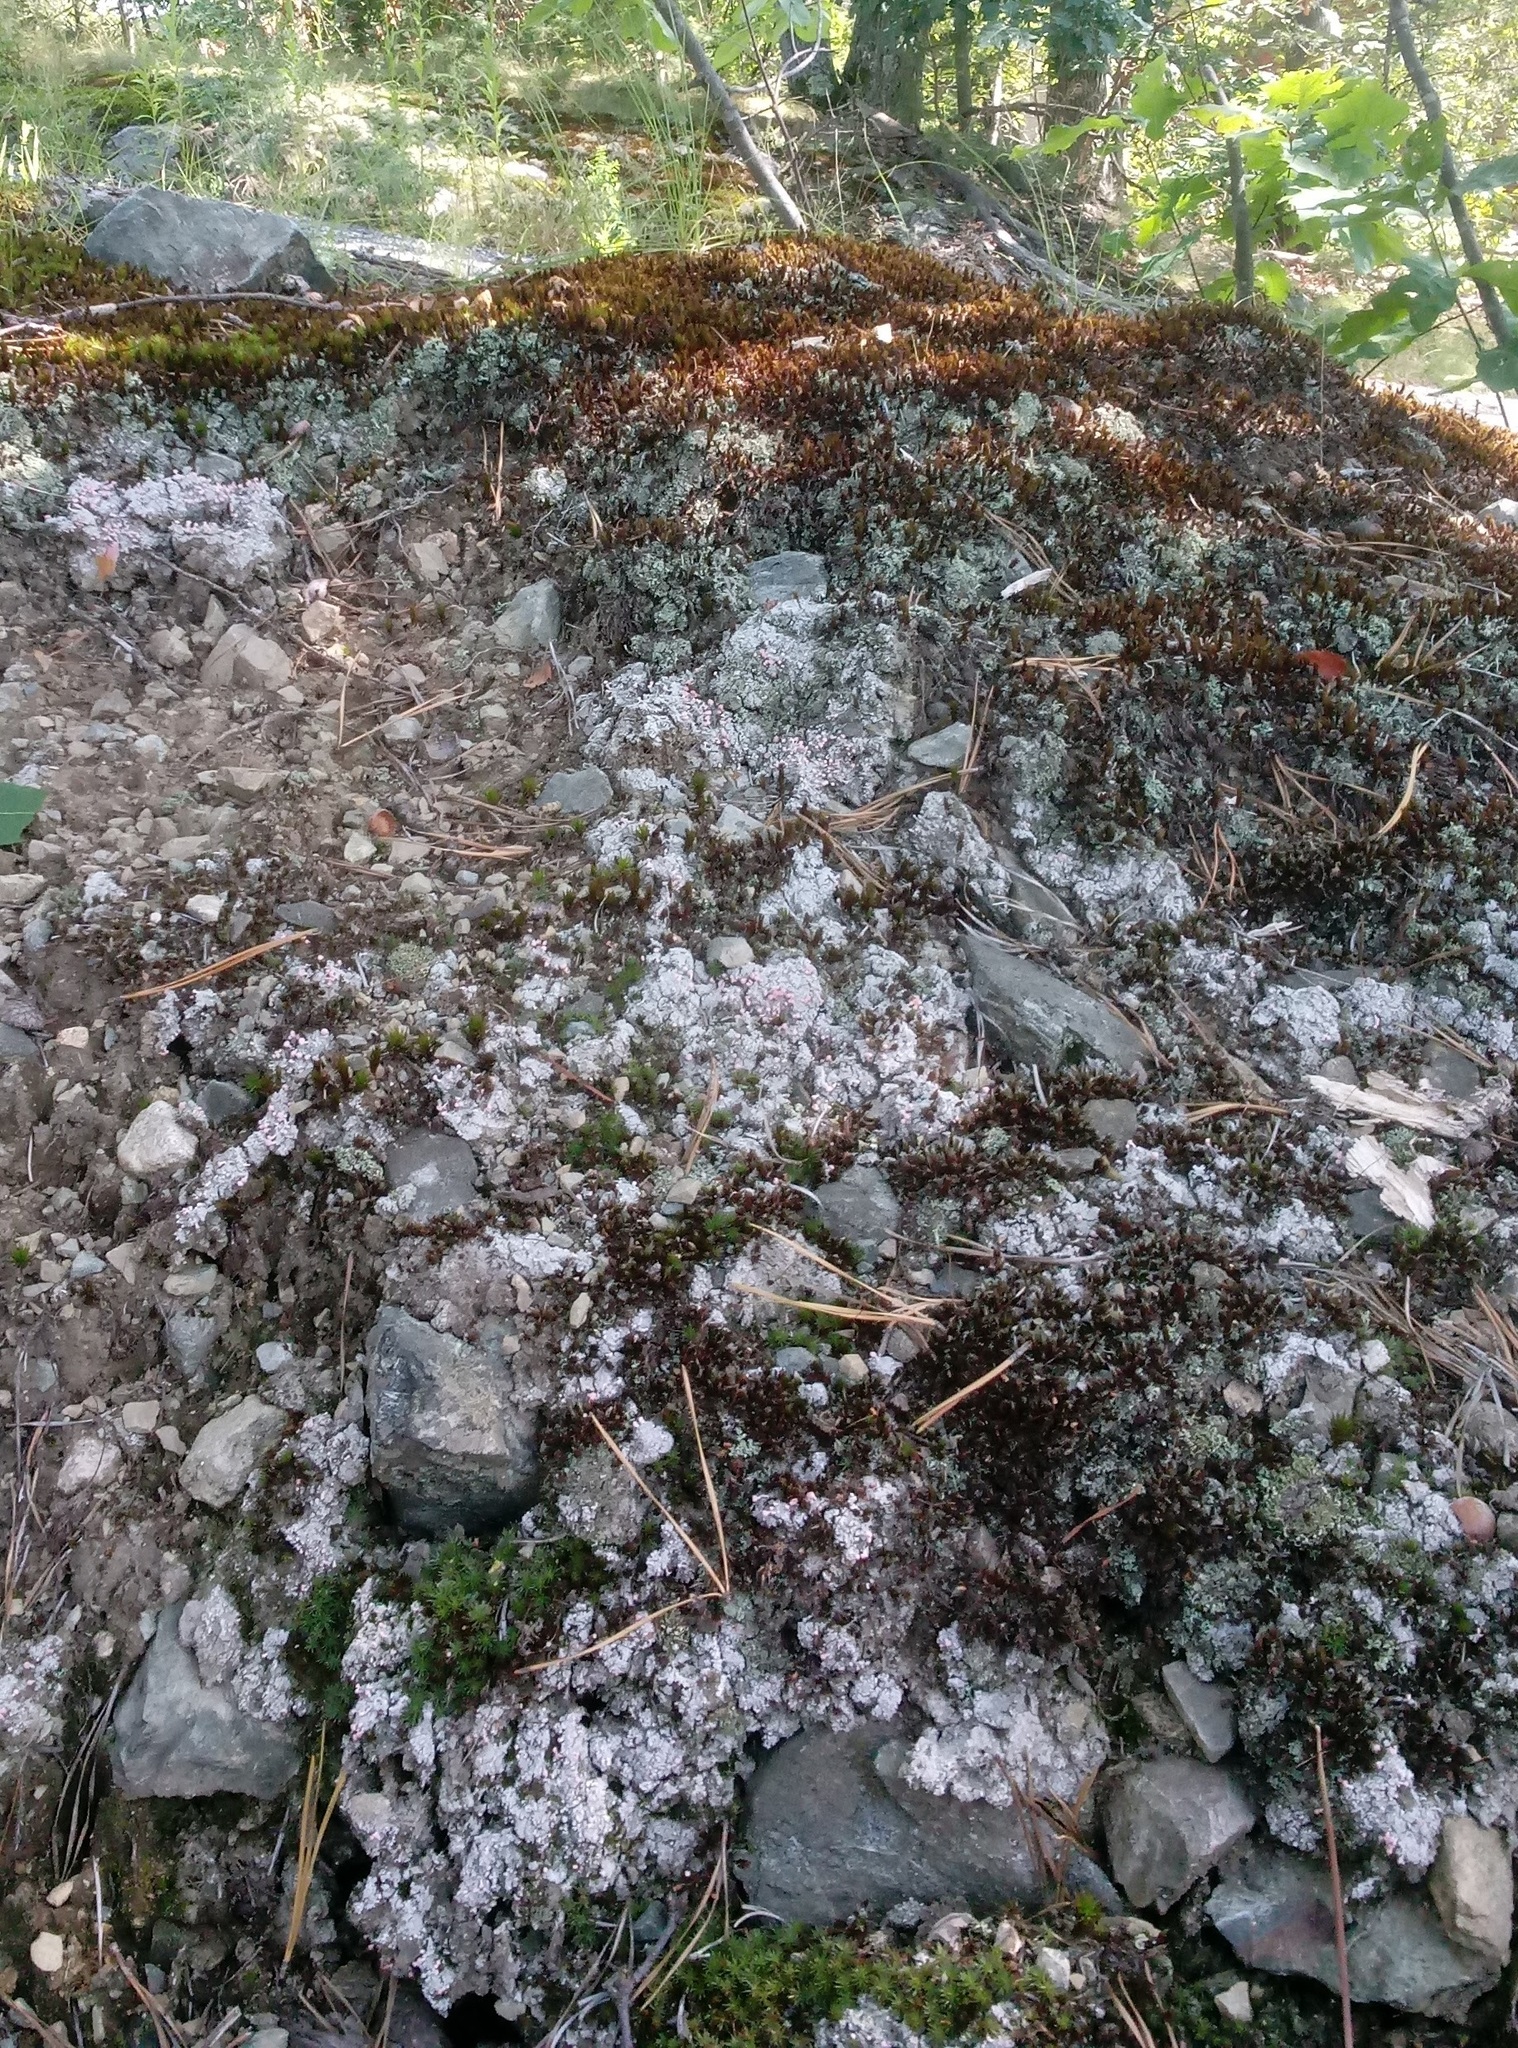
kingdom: Fungi
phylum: Ascomycota
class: Lecanoromycetes
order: Pertusariales
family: Icmadophilaceae
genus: Dibaeis
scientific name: Dibaeis baeomyces
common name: Pink earth lichen
